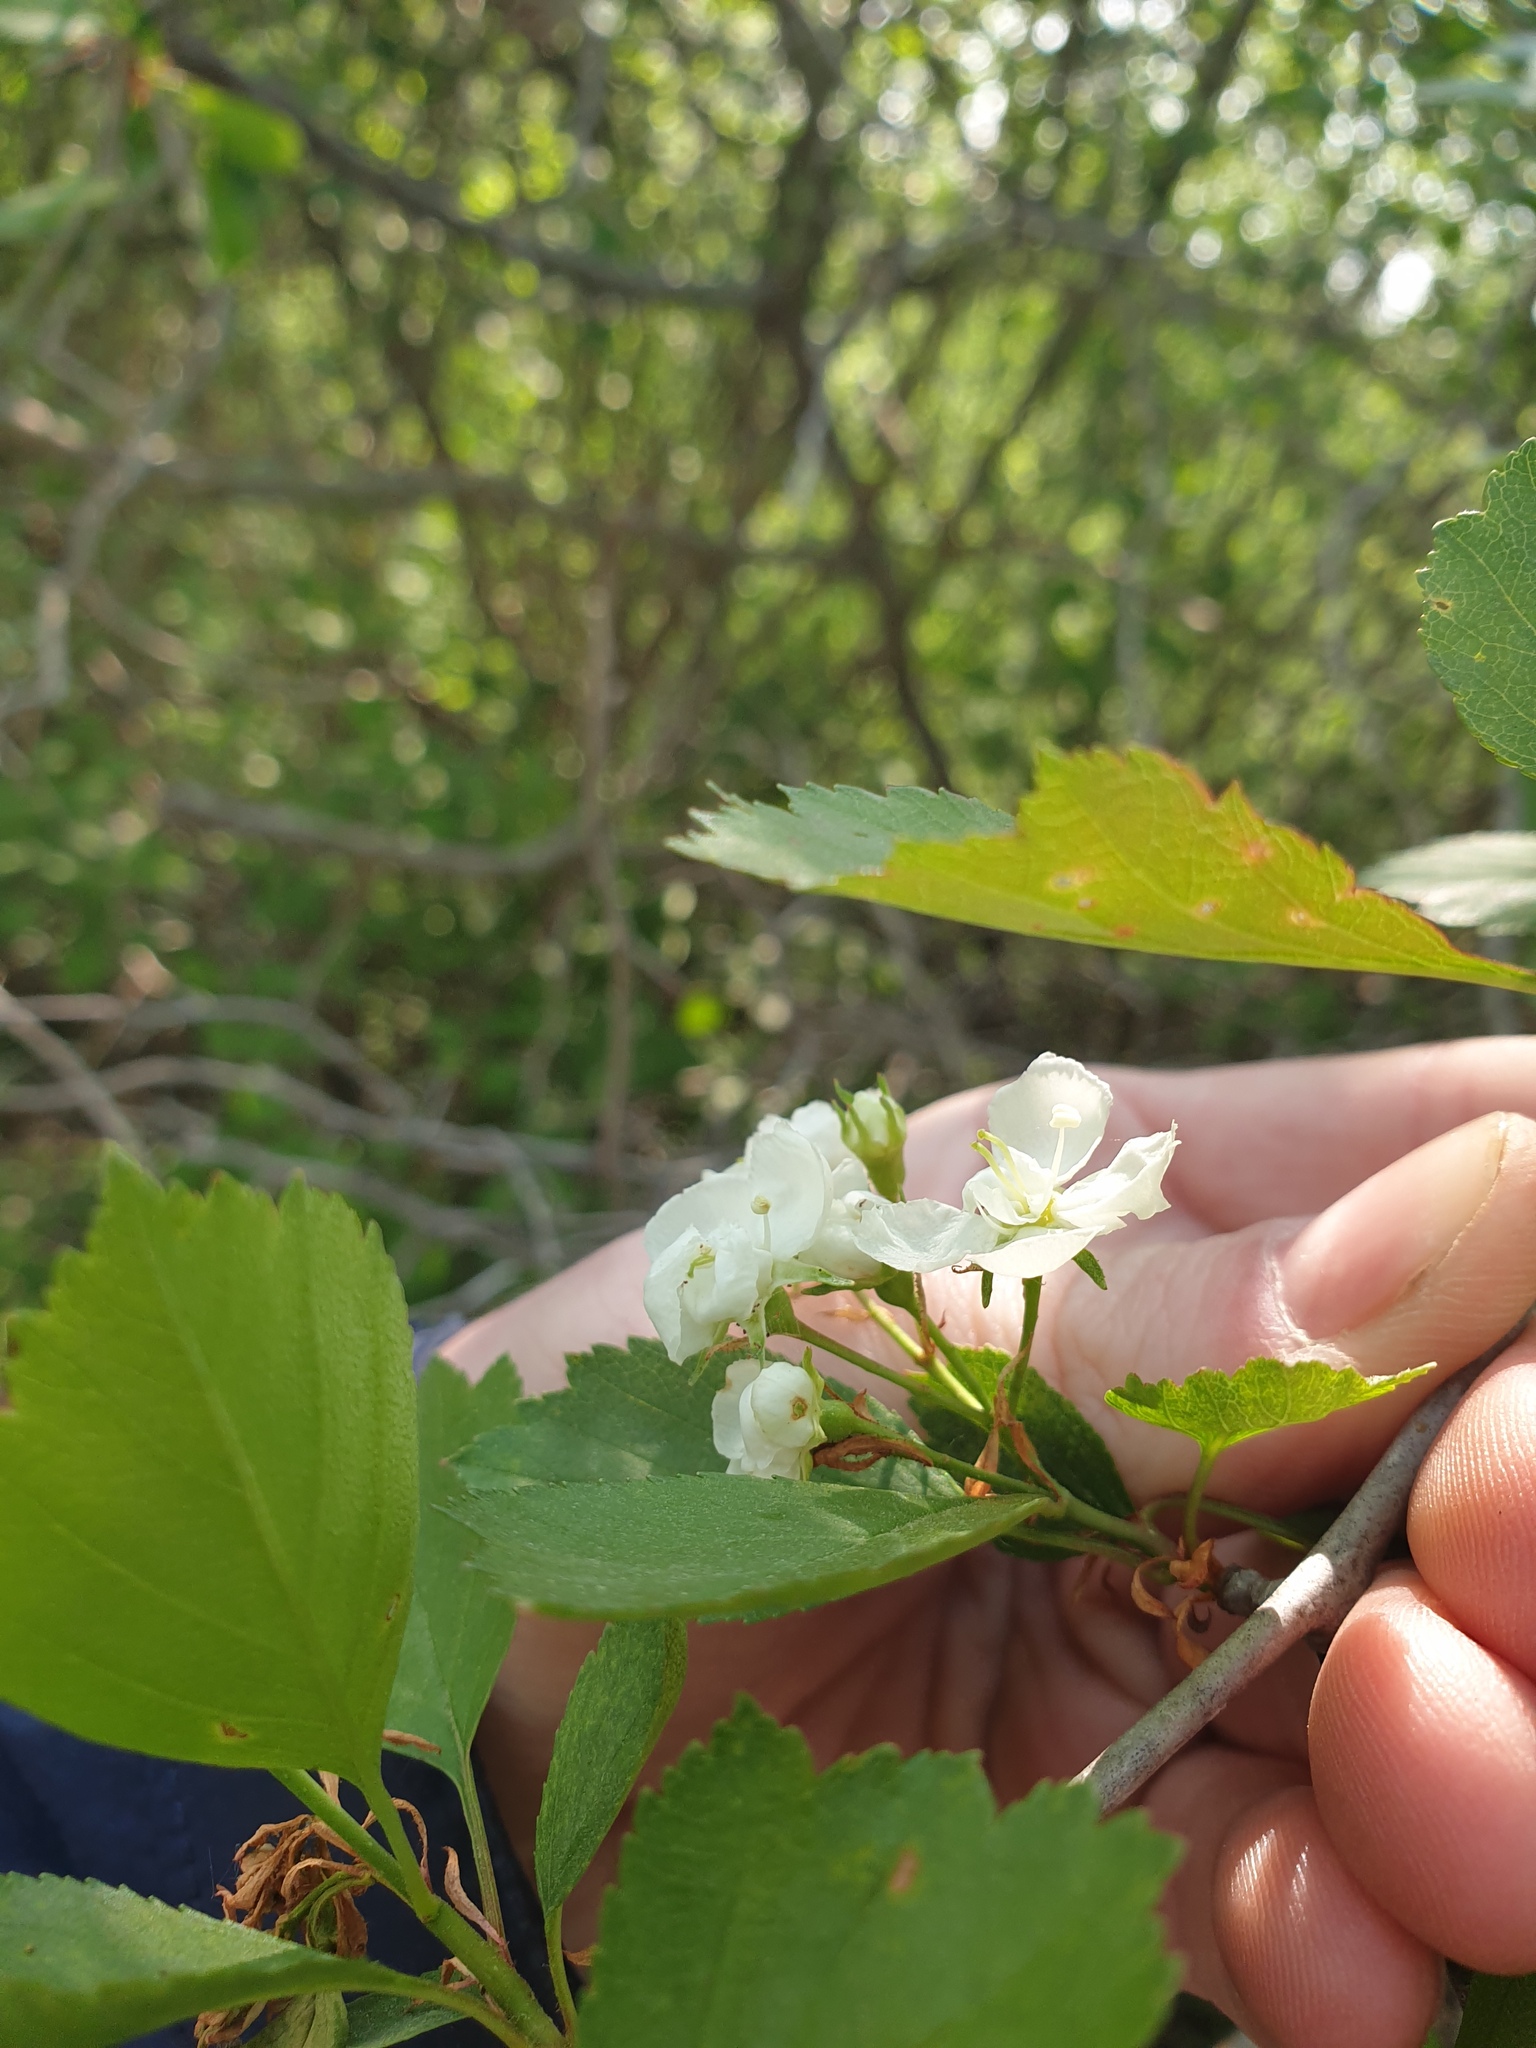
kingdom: Plantae
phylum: Tracheophyta
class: Magnoliopsida
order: Rosales
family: Rosaceae
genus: Crataegus
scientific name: Crataegus dodgei
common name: Dodge's hawthorn
